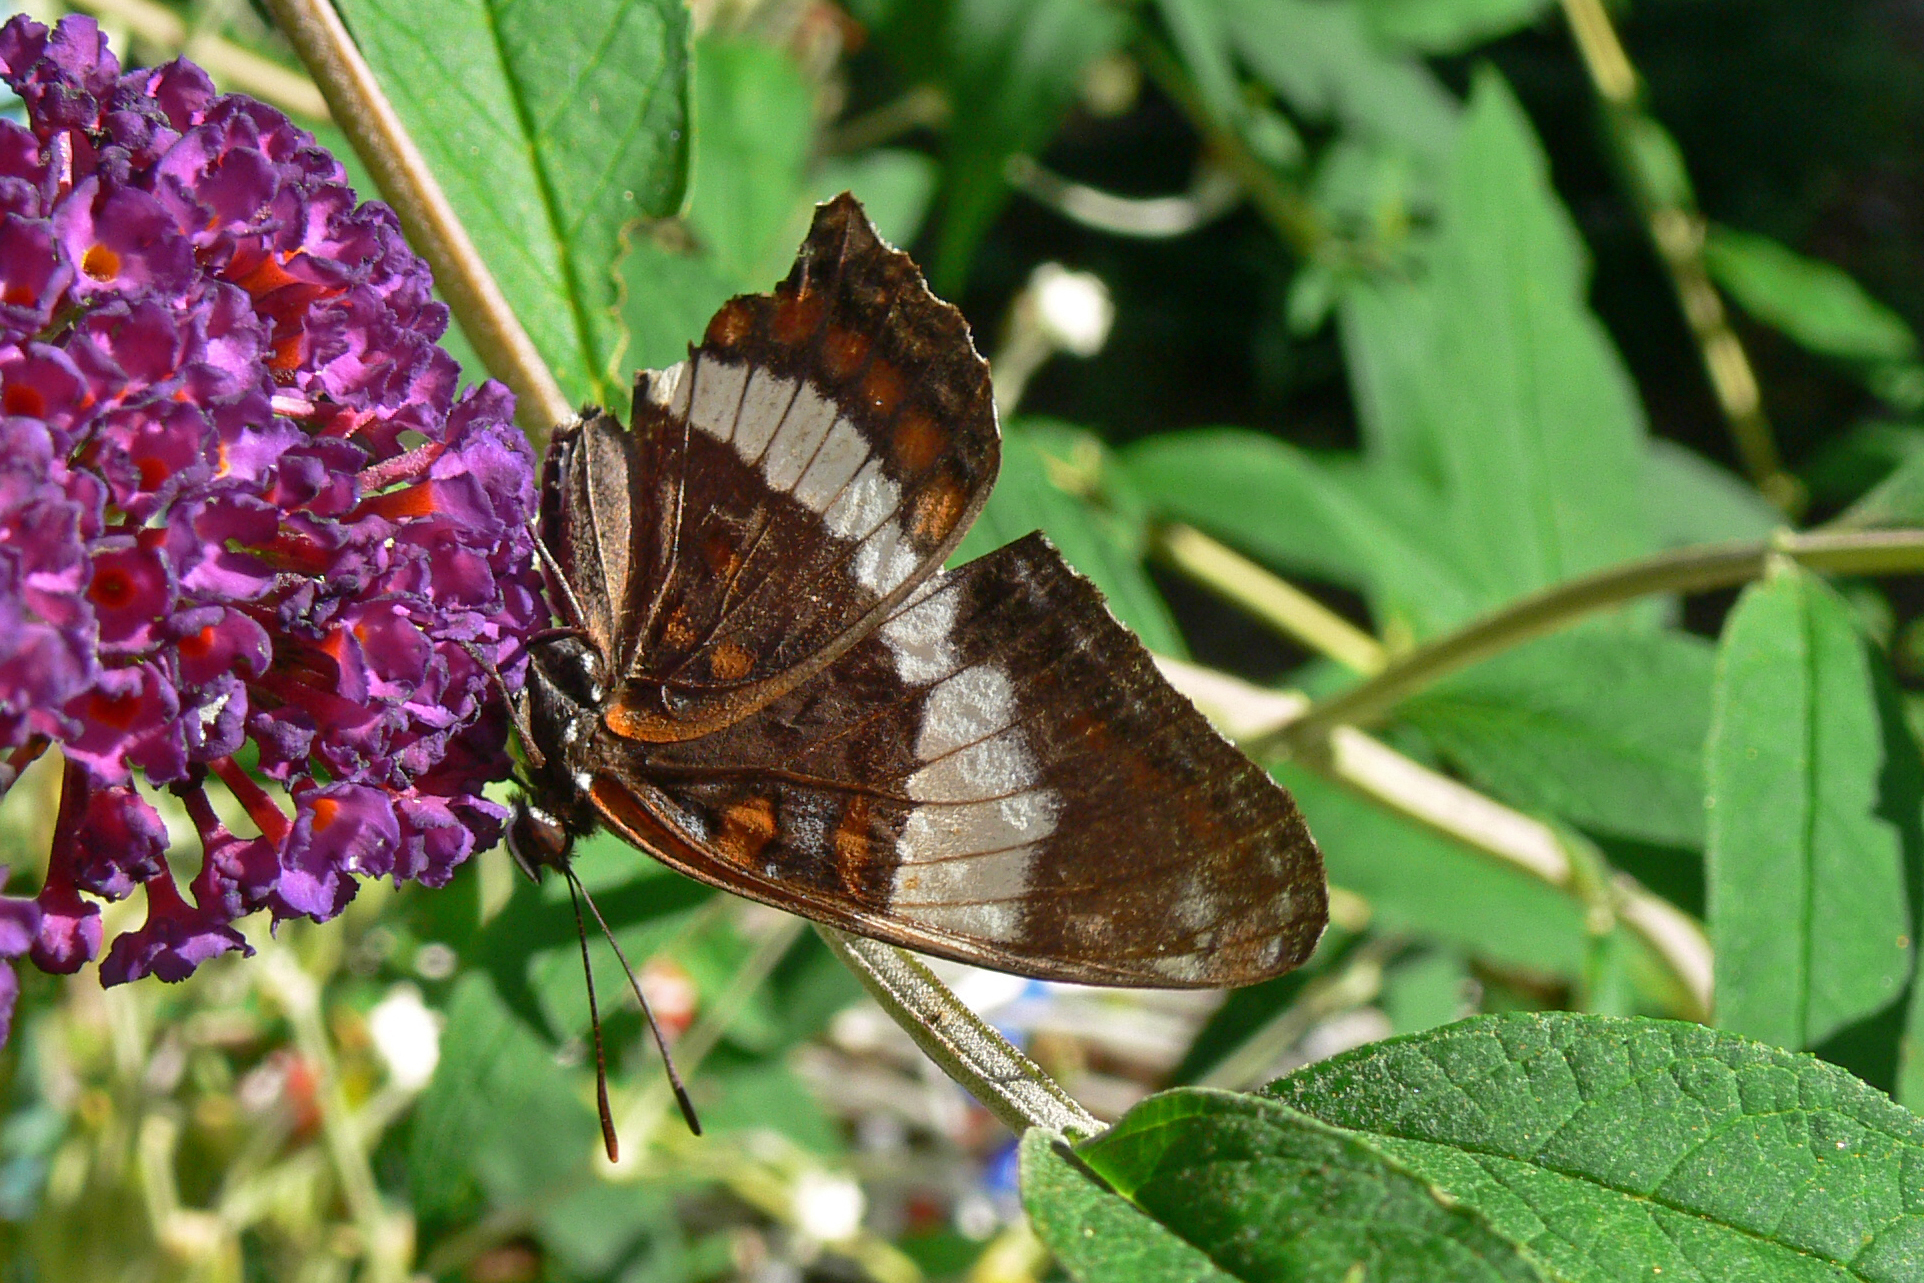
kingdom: Animalia
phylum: Arthropoda
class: Insecta
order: Lepidoptera
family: Nymphalidae
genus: Limenitis
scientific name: Limenitis arthemis
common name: Red-spotted admiral
